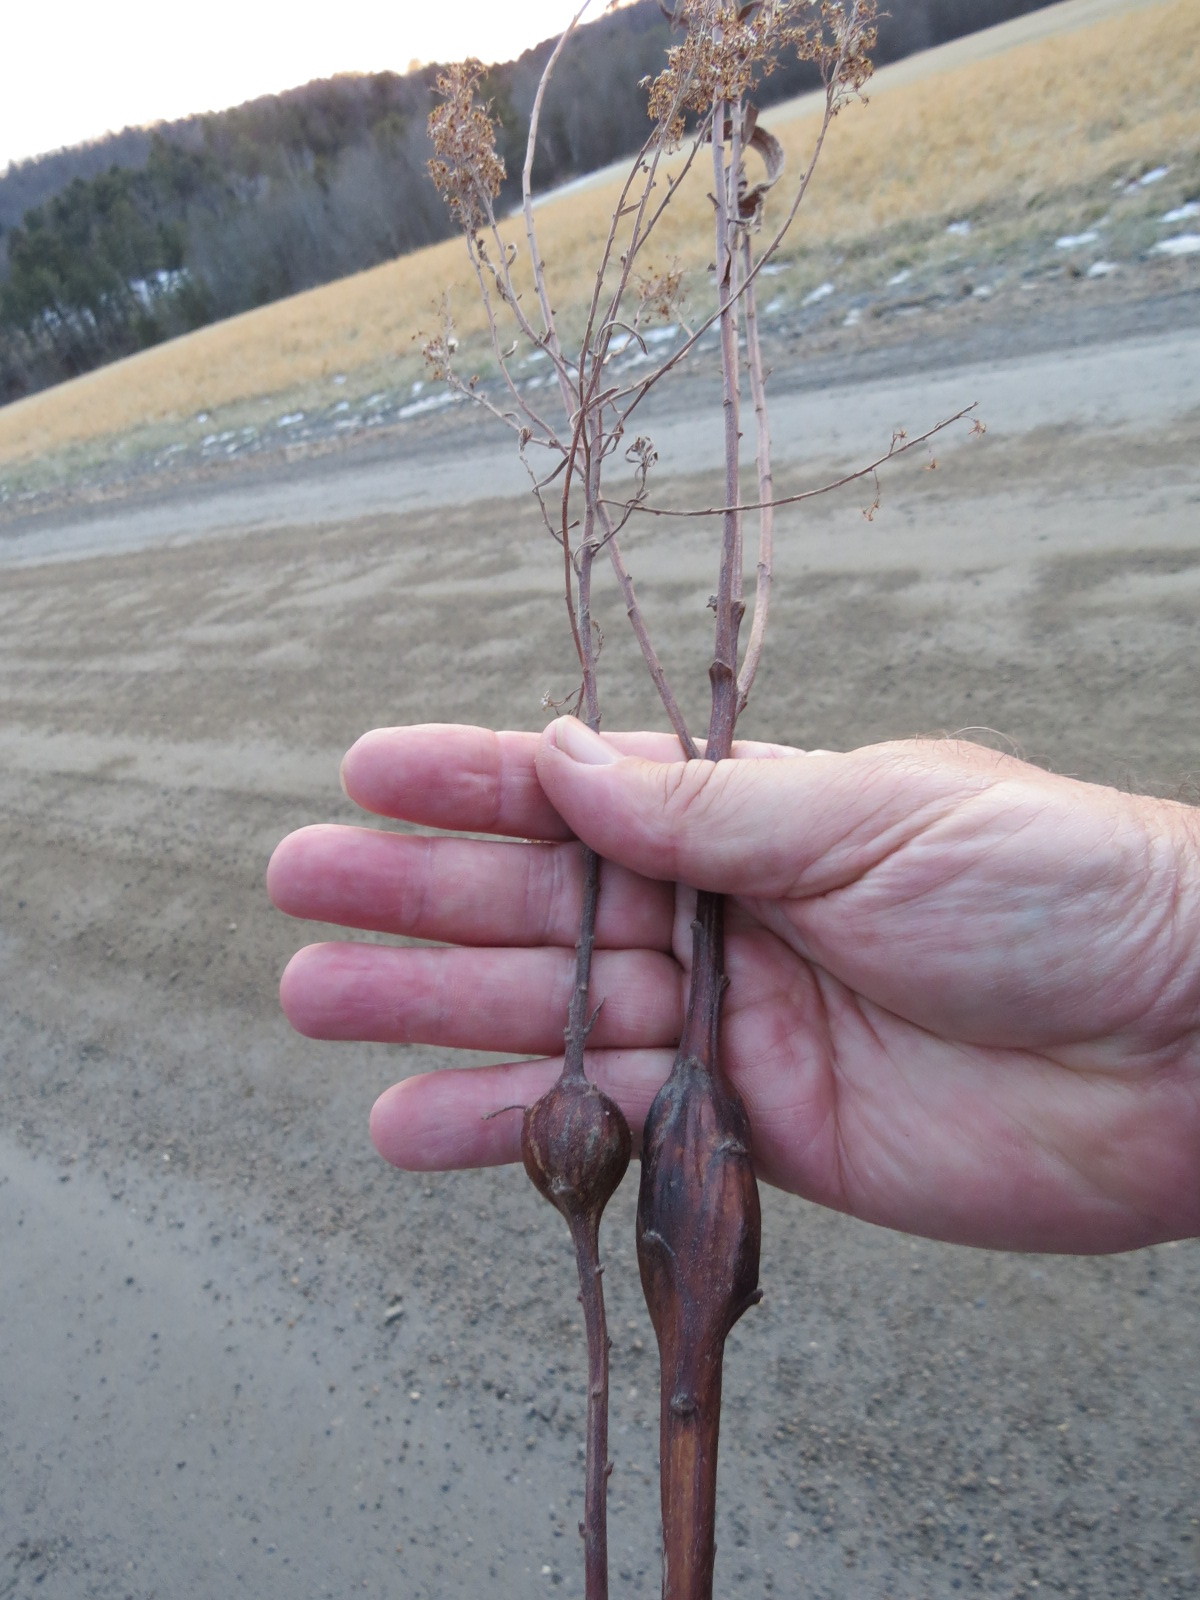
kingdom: Animalia
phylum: Arthropoda
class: Insecta
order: Diptera
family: Tephritidae
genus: Eurosta
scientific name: Eurosta solidaginis
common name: Goldenrod gall fly
